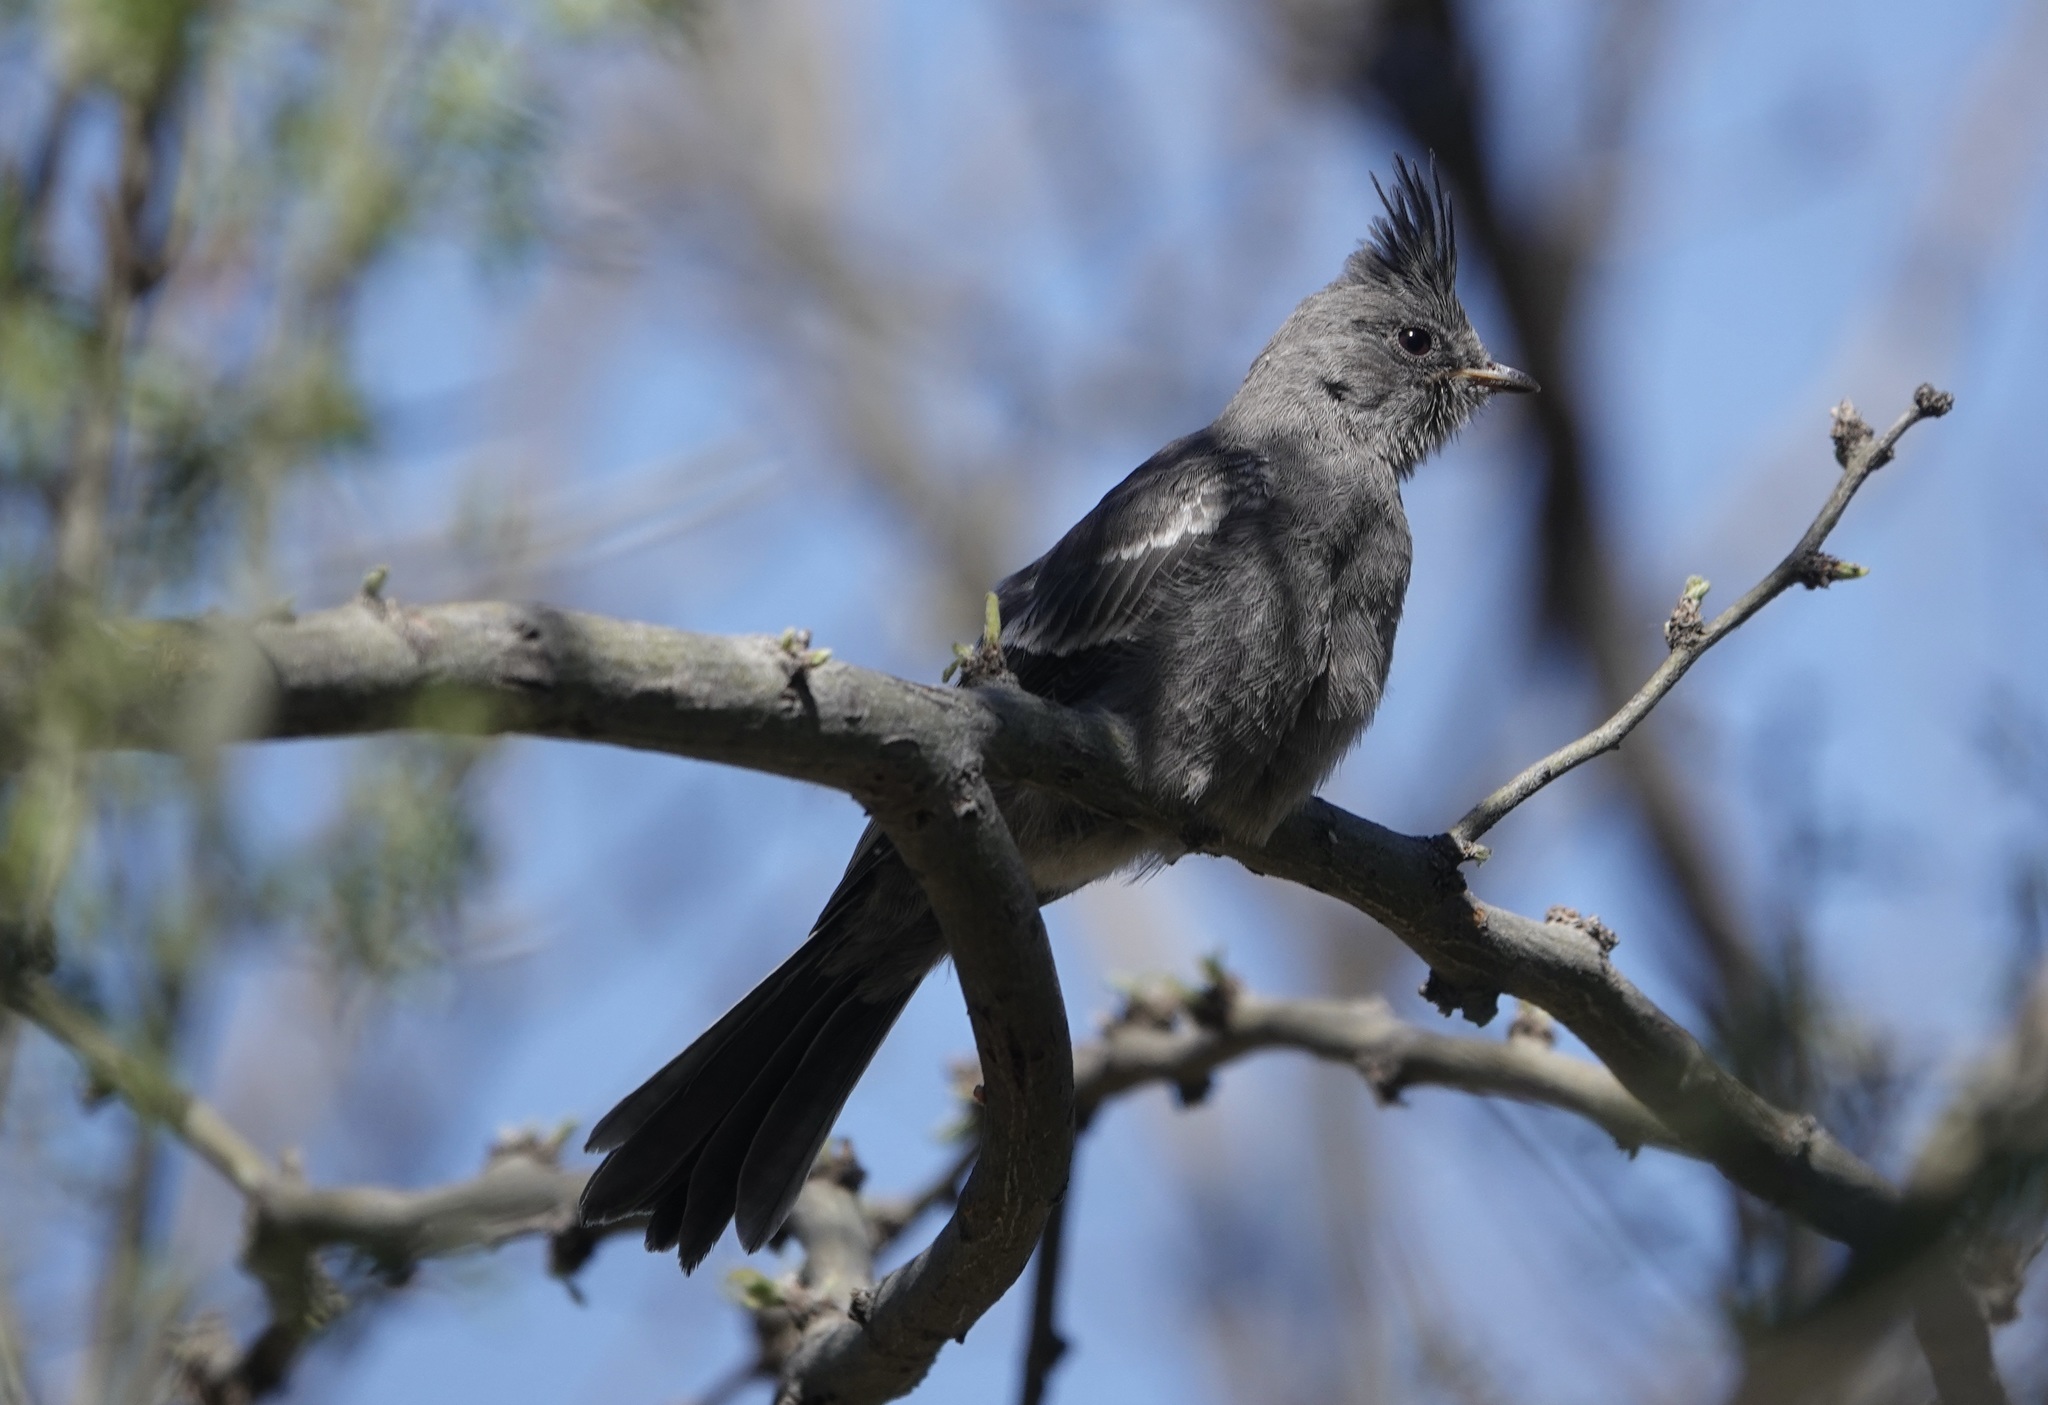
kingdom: Animalia
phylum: Chordata
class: Aves
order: Passeriformes
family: Ptilogonatidae
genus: Phainopepla
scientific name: Phainopepla nitens
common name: Phainopepla
